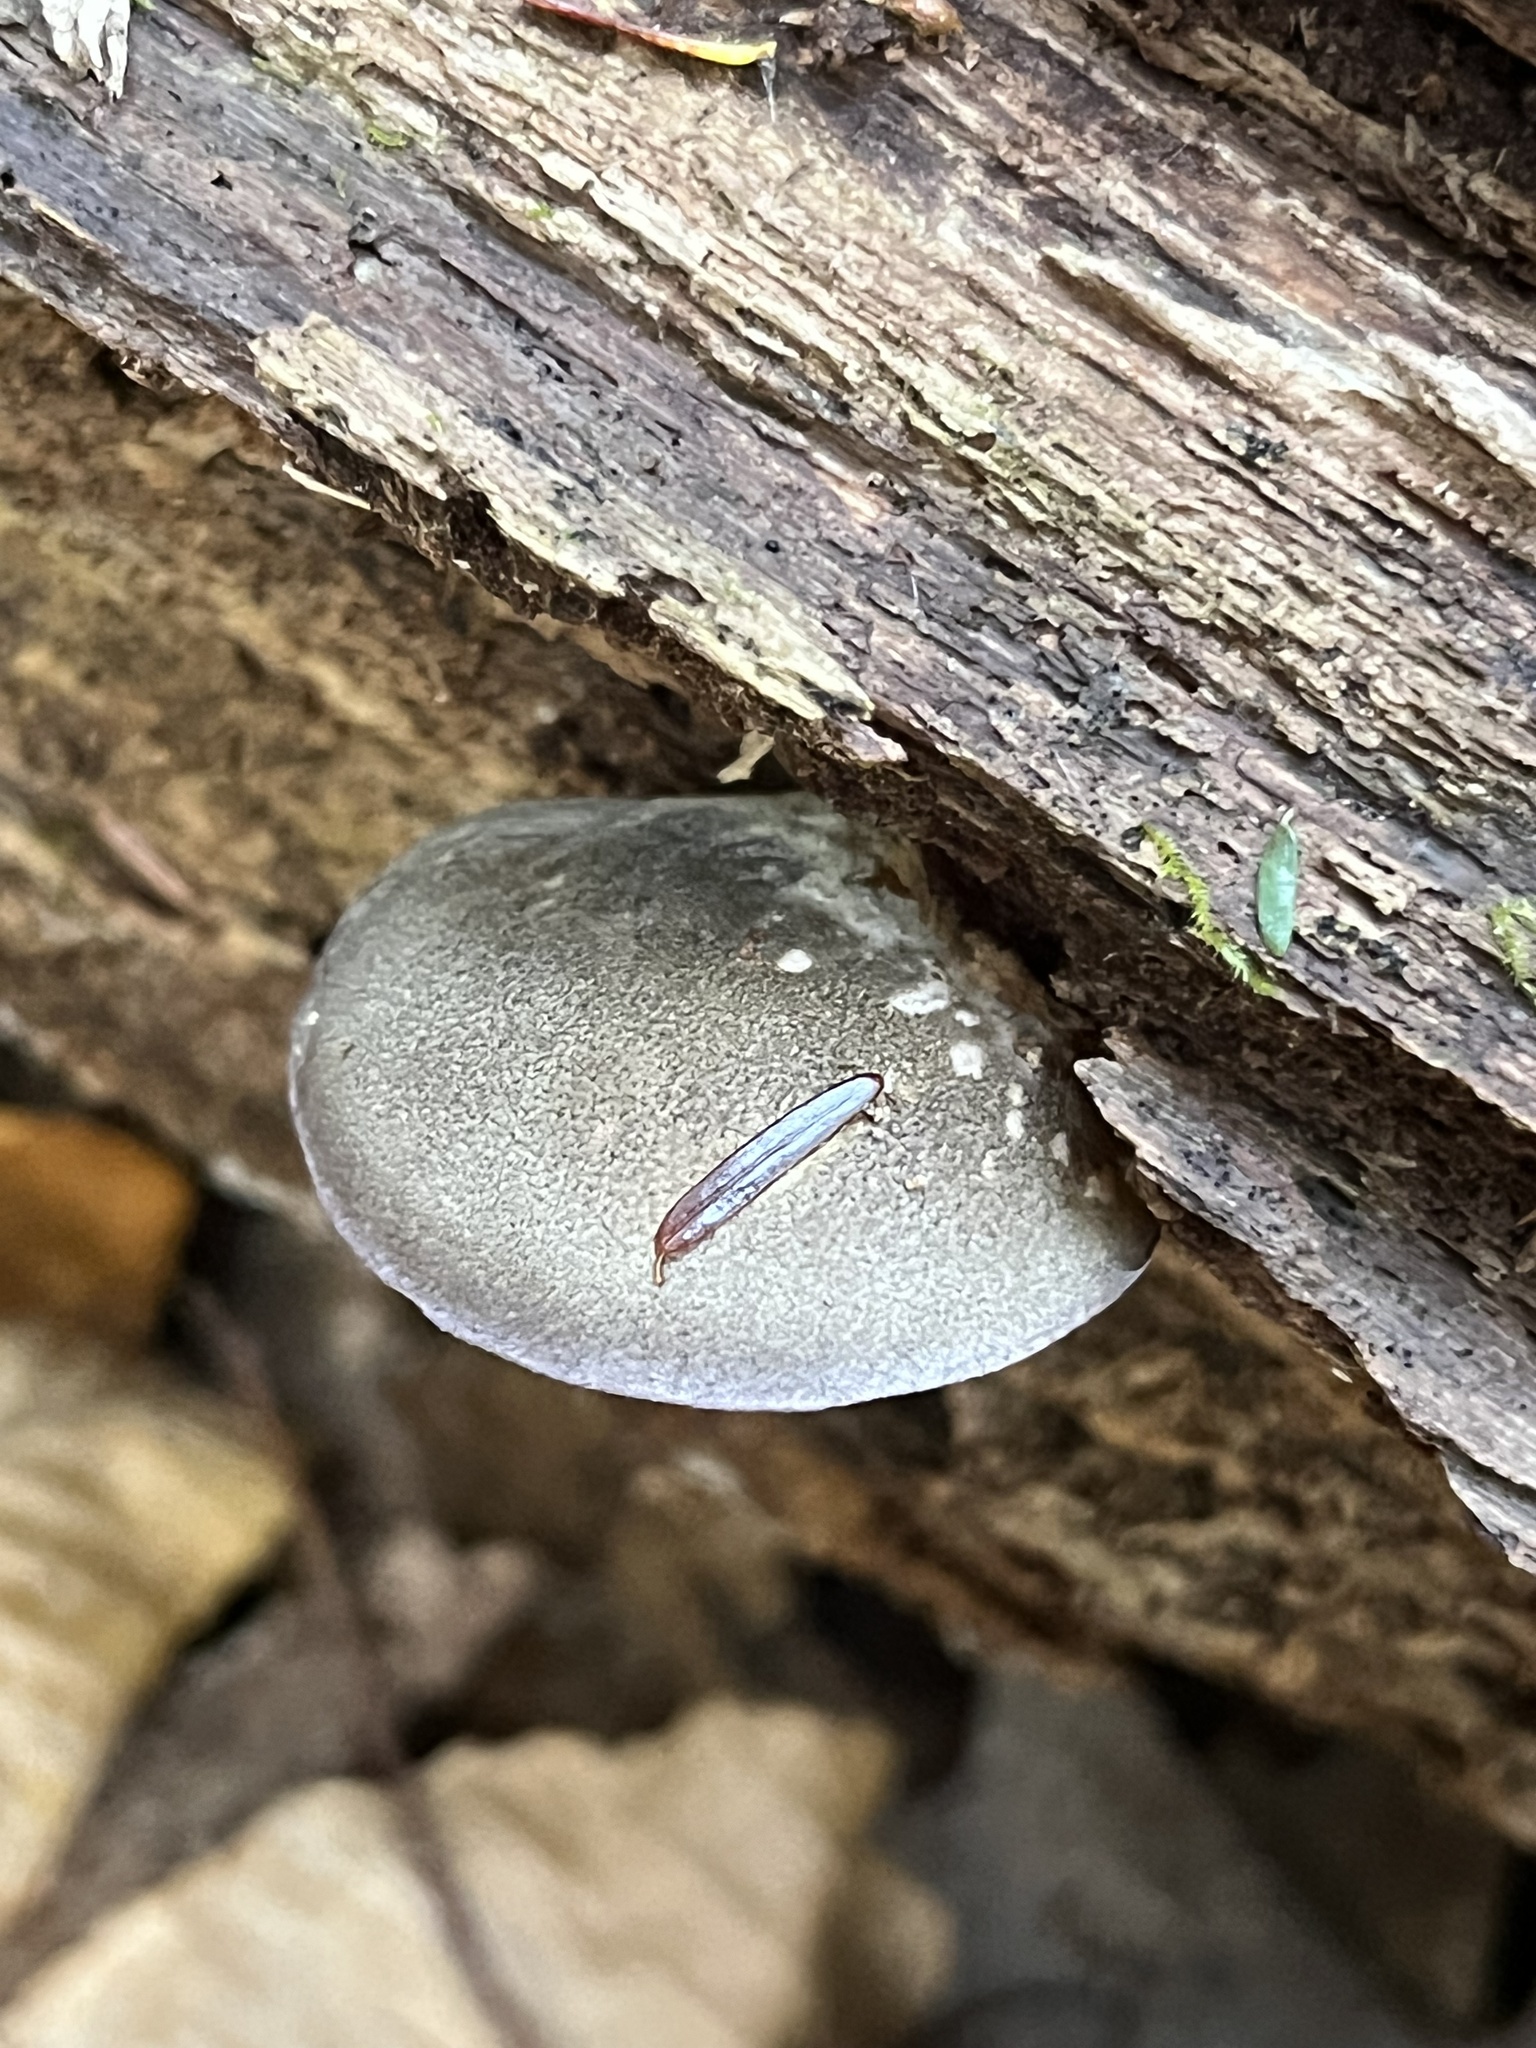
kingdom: Fungi
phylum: Basidiomycota
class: Agaricomycetes
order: Agaricales
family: Sarcomyxaceae
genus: Sarcomyxa
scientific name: Sarcomyxa serotina
